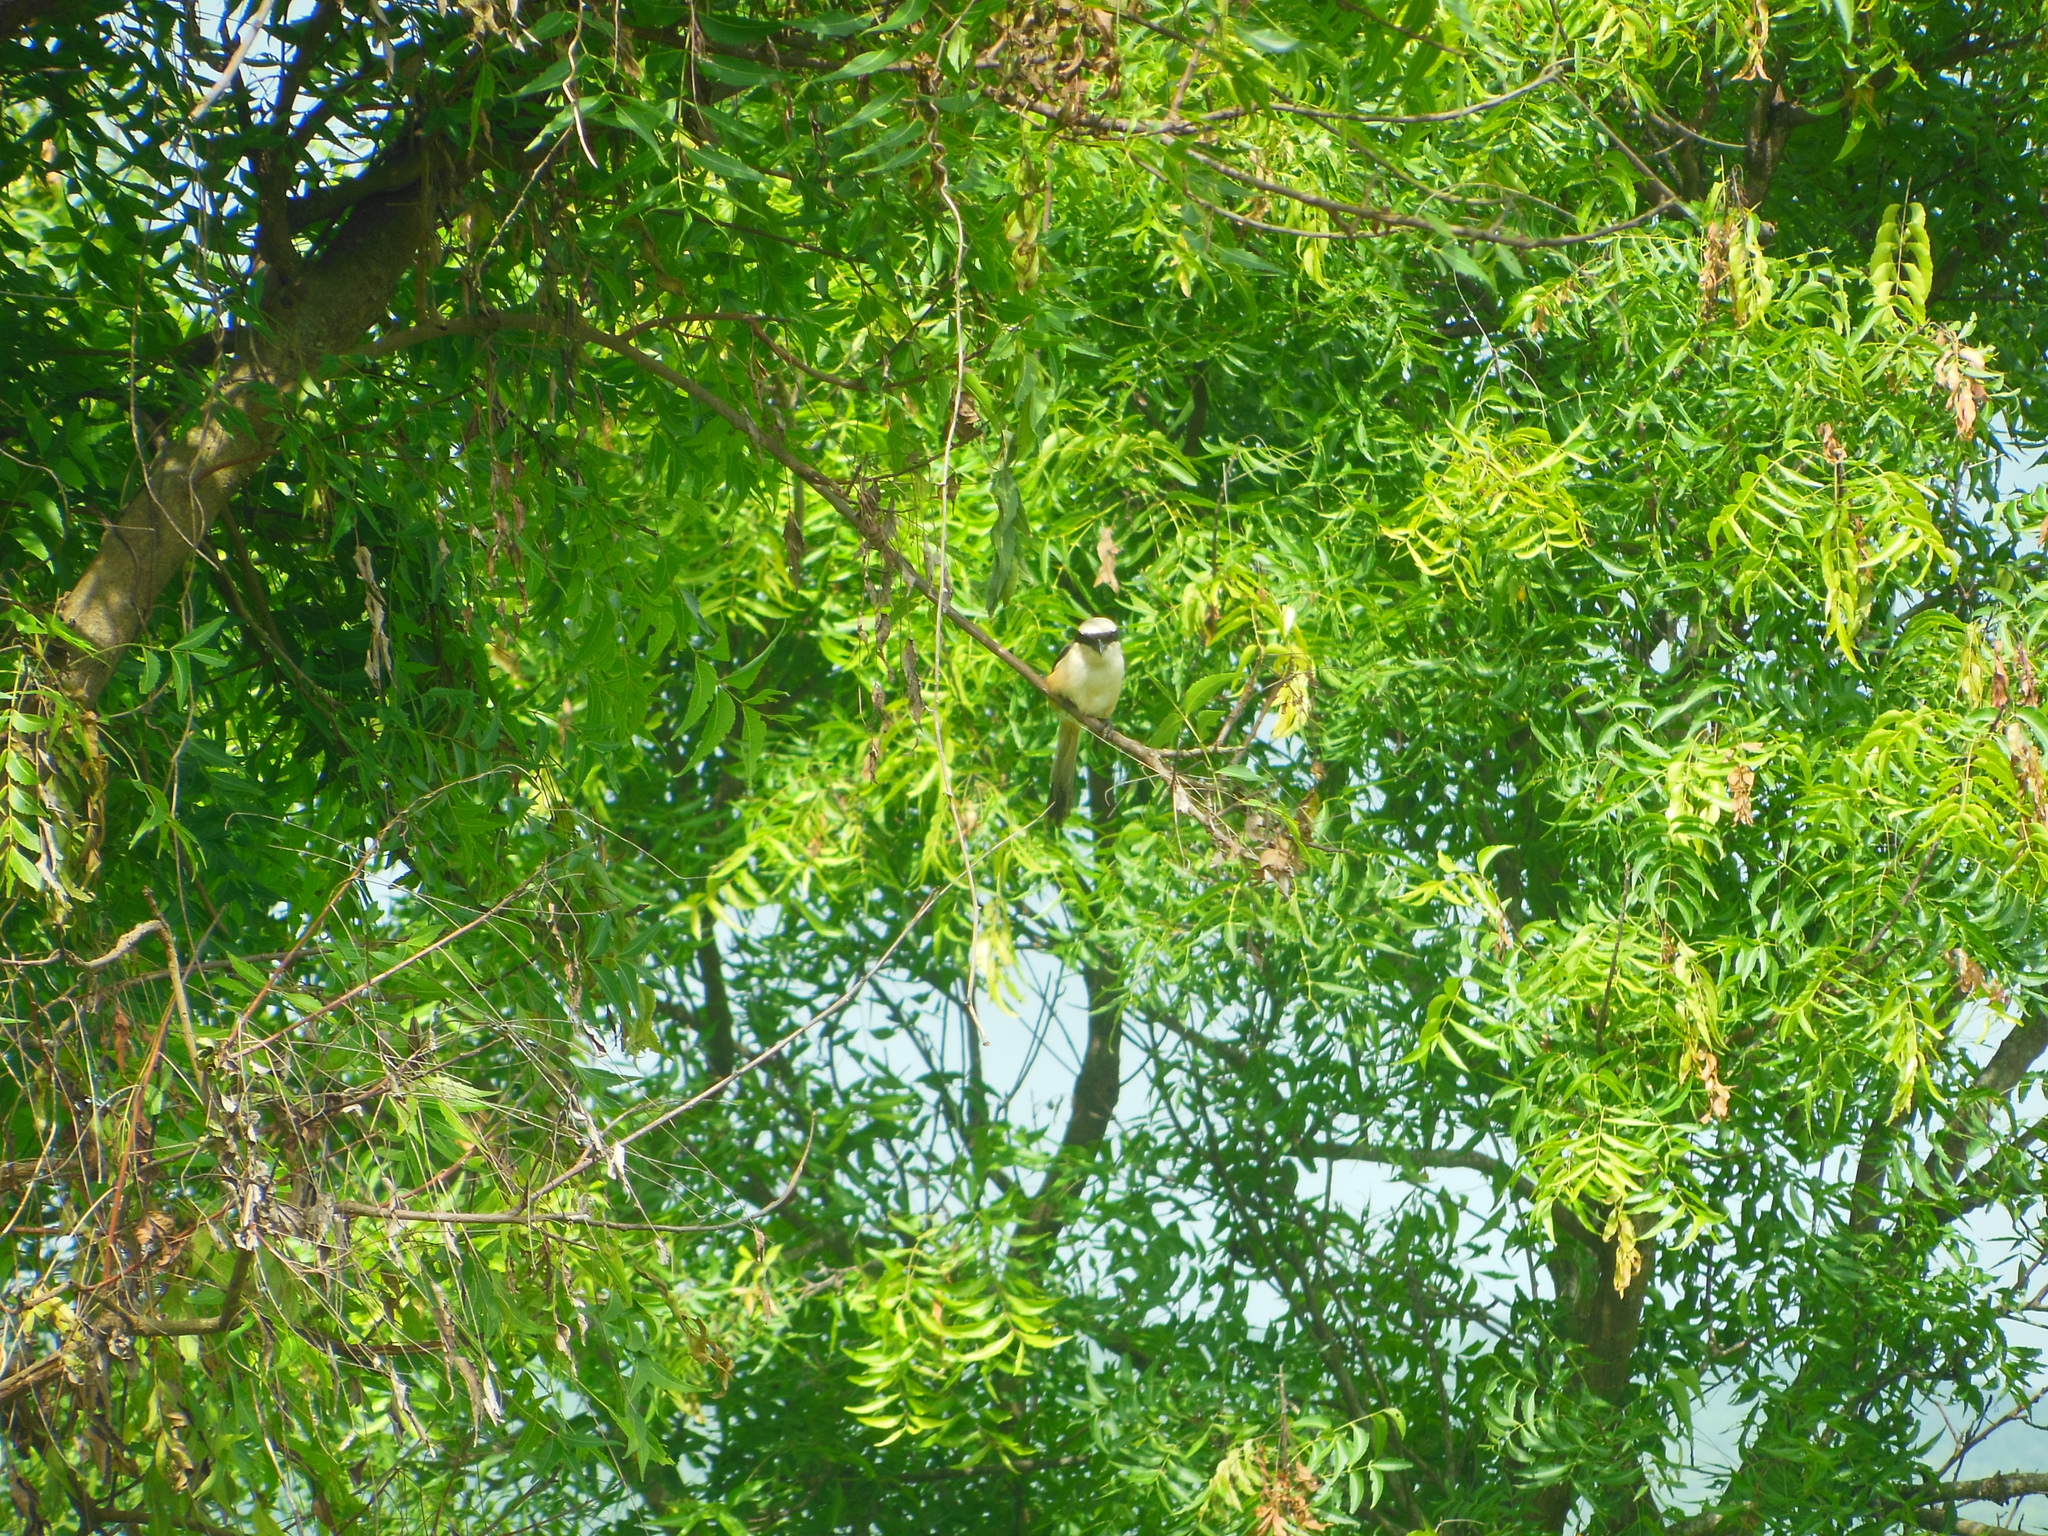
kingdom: Animalia
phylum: Chordata
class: Aves
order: Passeriformes
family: Laniidae
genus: Lanius
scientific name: Lanius schach
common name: Long-tailed shrike
